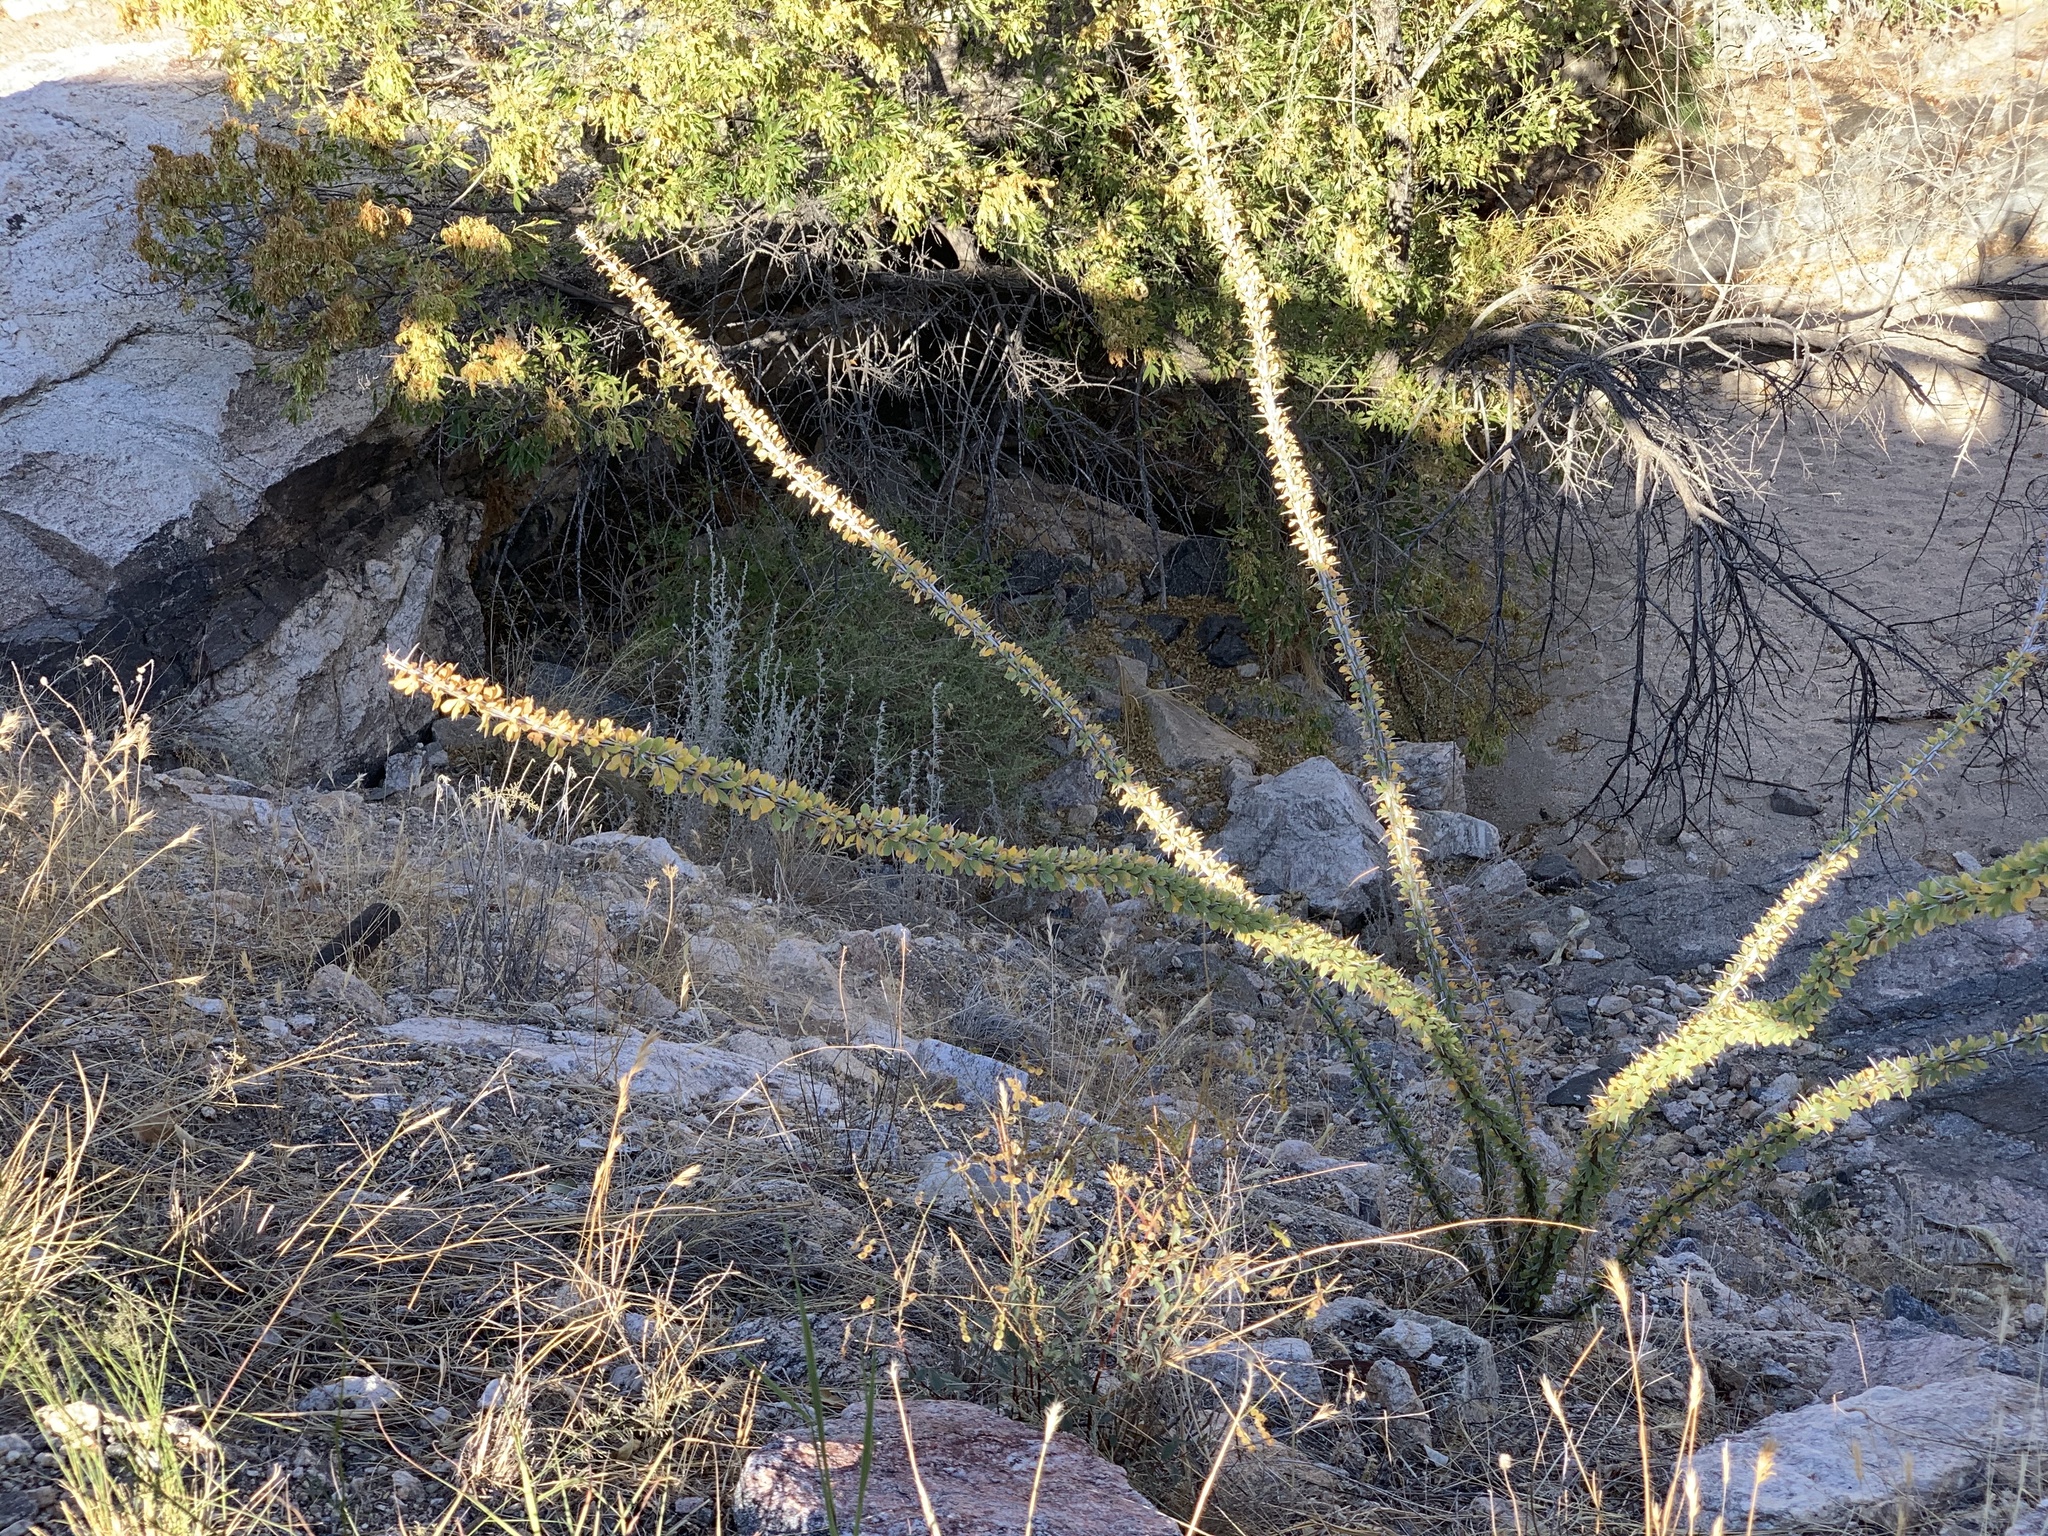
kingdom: Plantae
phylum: Tracheophyta
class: Magnoliopsida
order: Ericales
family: Fouquieriaceae
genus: Fouquieria
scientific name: Fouquieria splendens
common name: Vine-cactus
